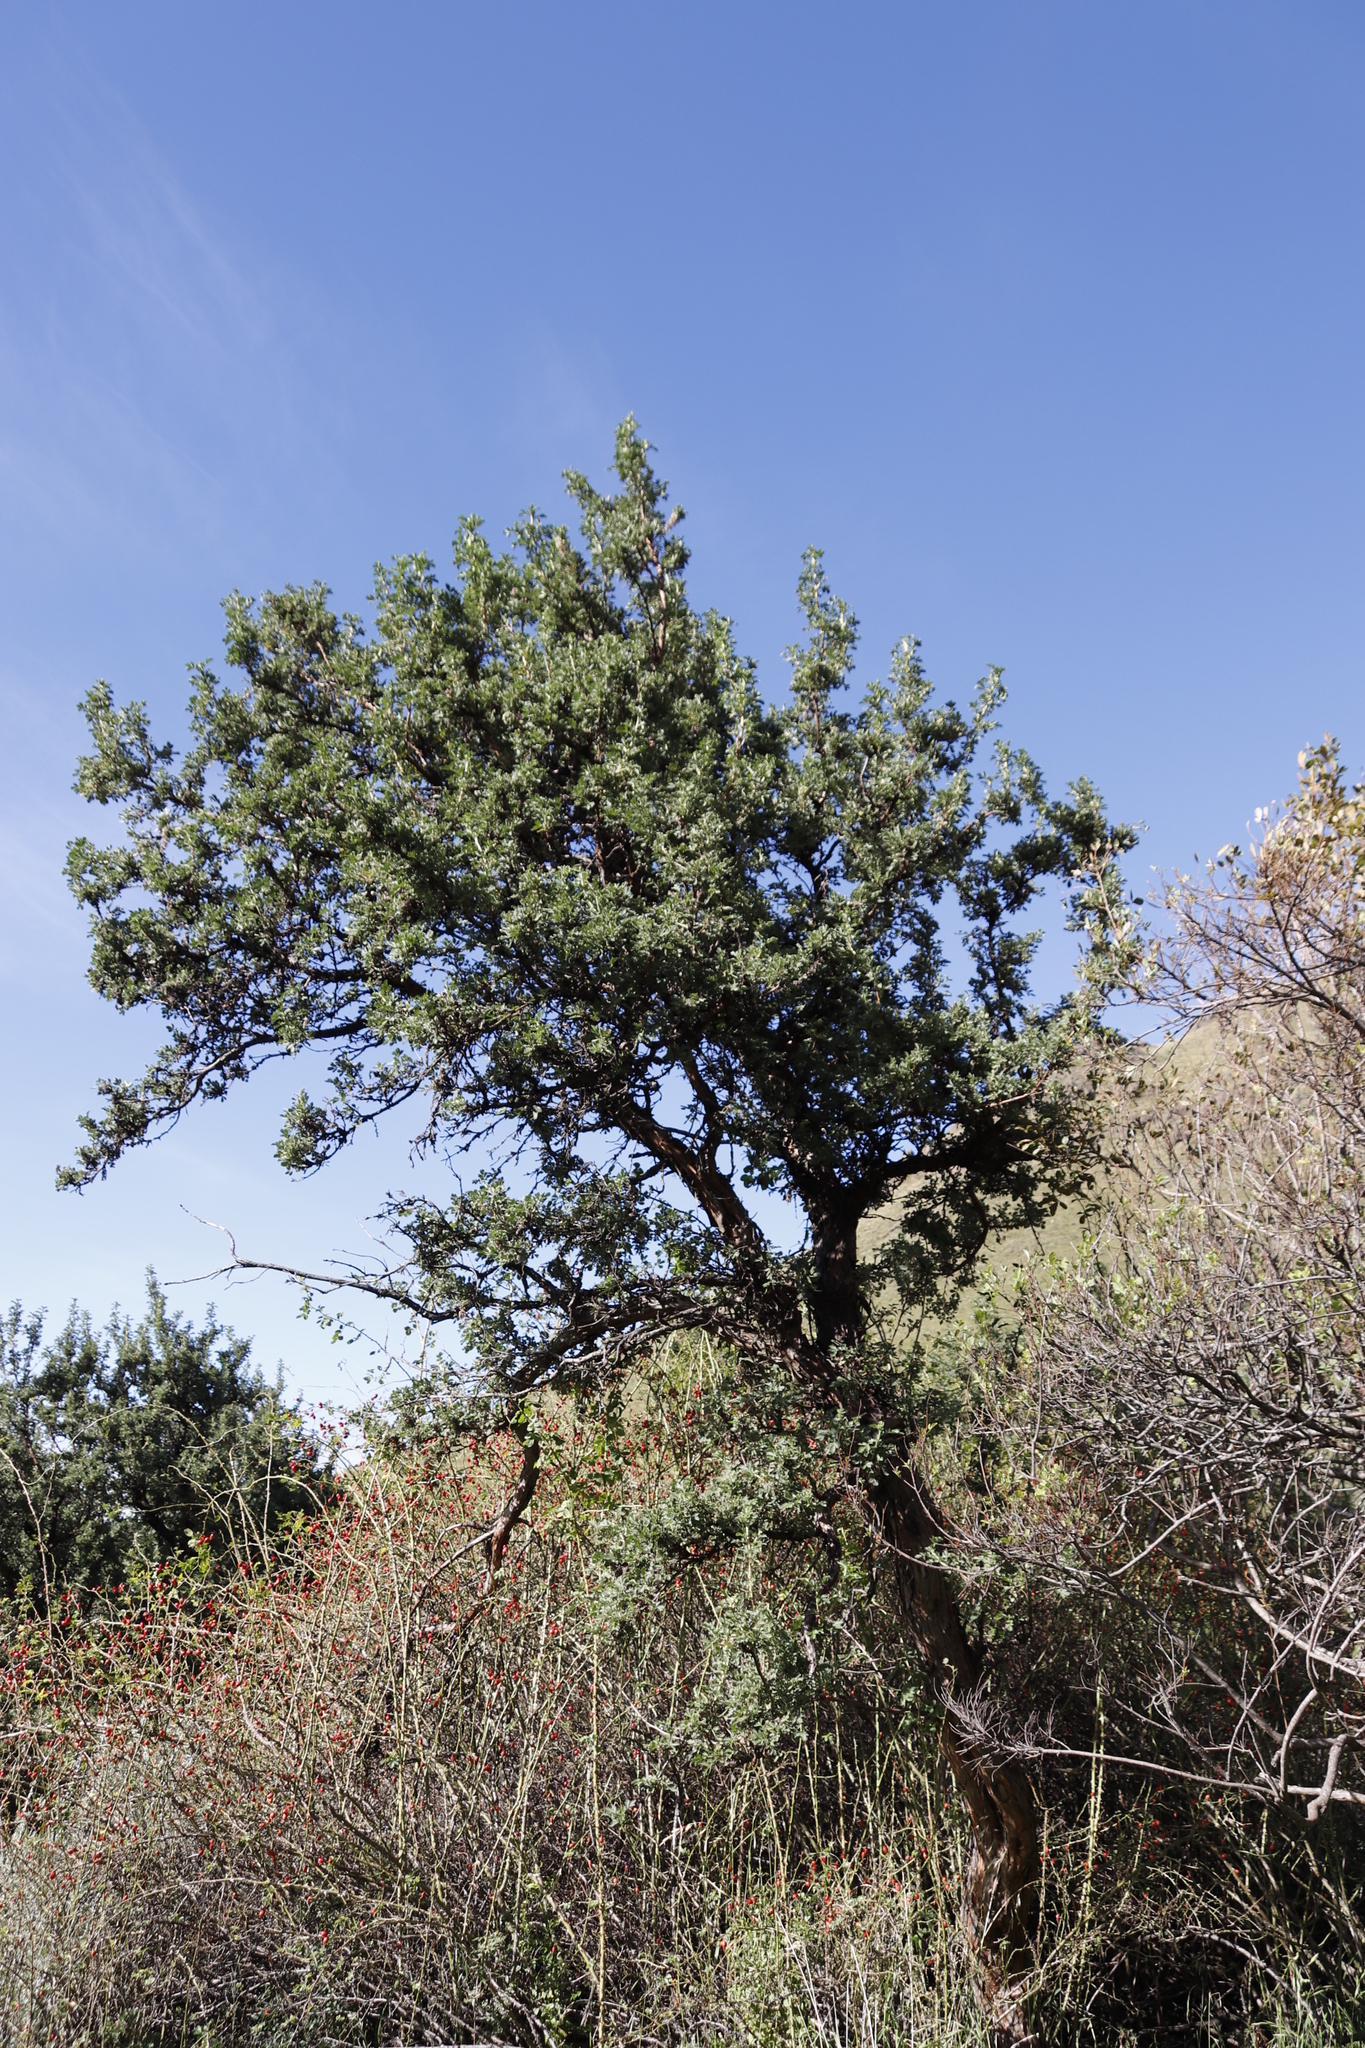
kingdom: Plantae
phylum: Tracheophyta
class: Magnoliopsida
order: Rosales
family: Rosaceae
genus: Leucosidea
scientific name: Leucosidea sericea
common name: Oldwood
